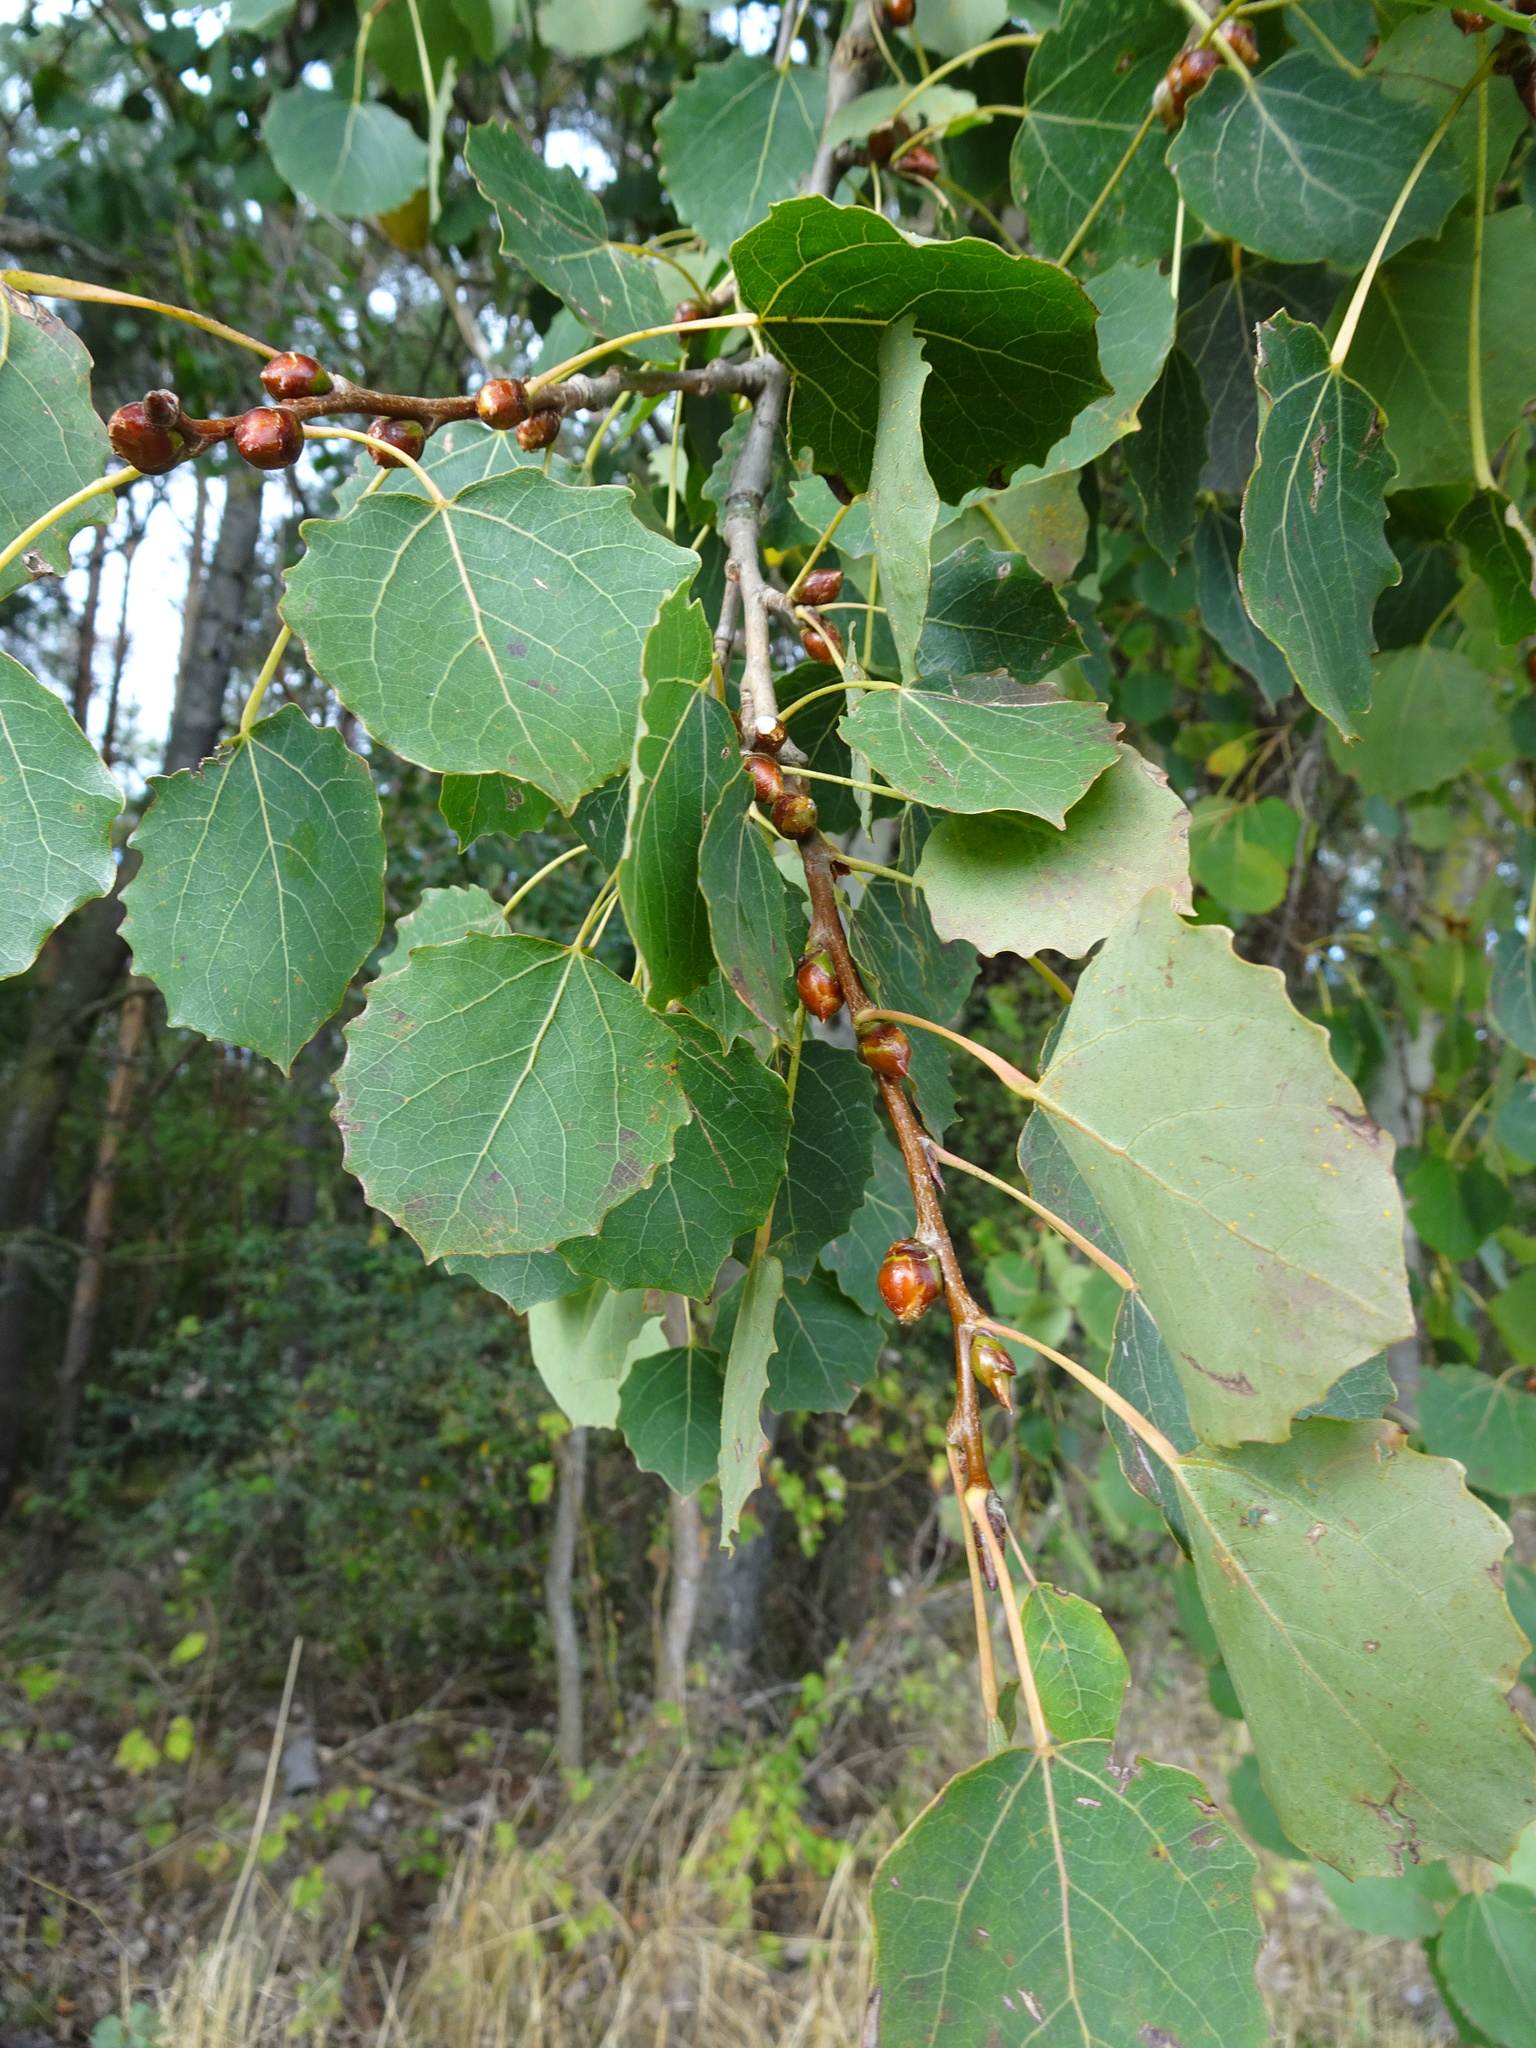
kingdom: Plantae
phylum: Tracheophyta
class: Magnoliopsida
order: Malpighiales
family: Salicaceae
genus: Populus
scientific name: Populus tremula
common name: European aspen
